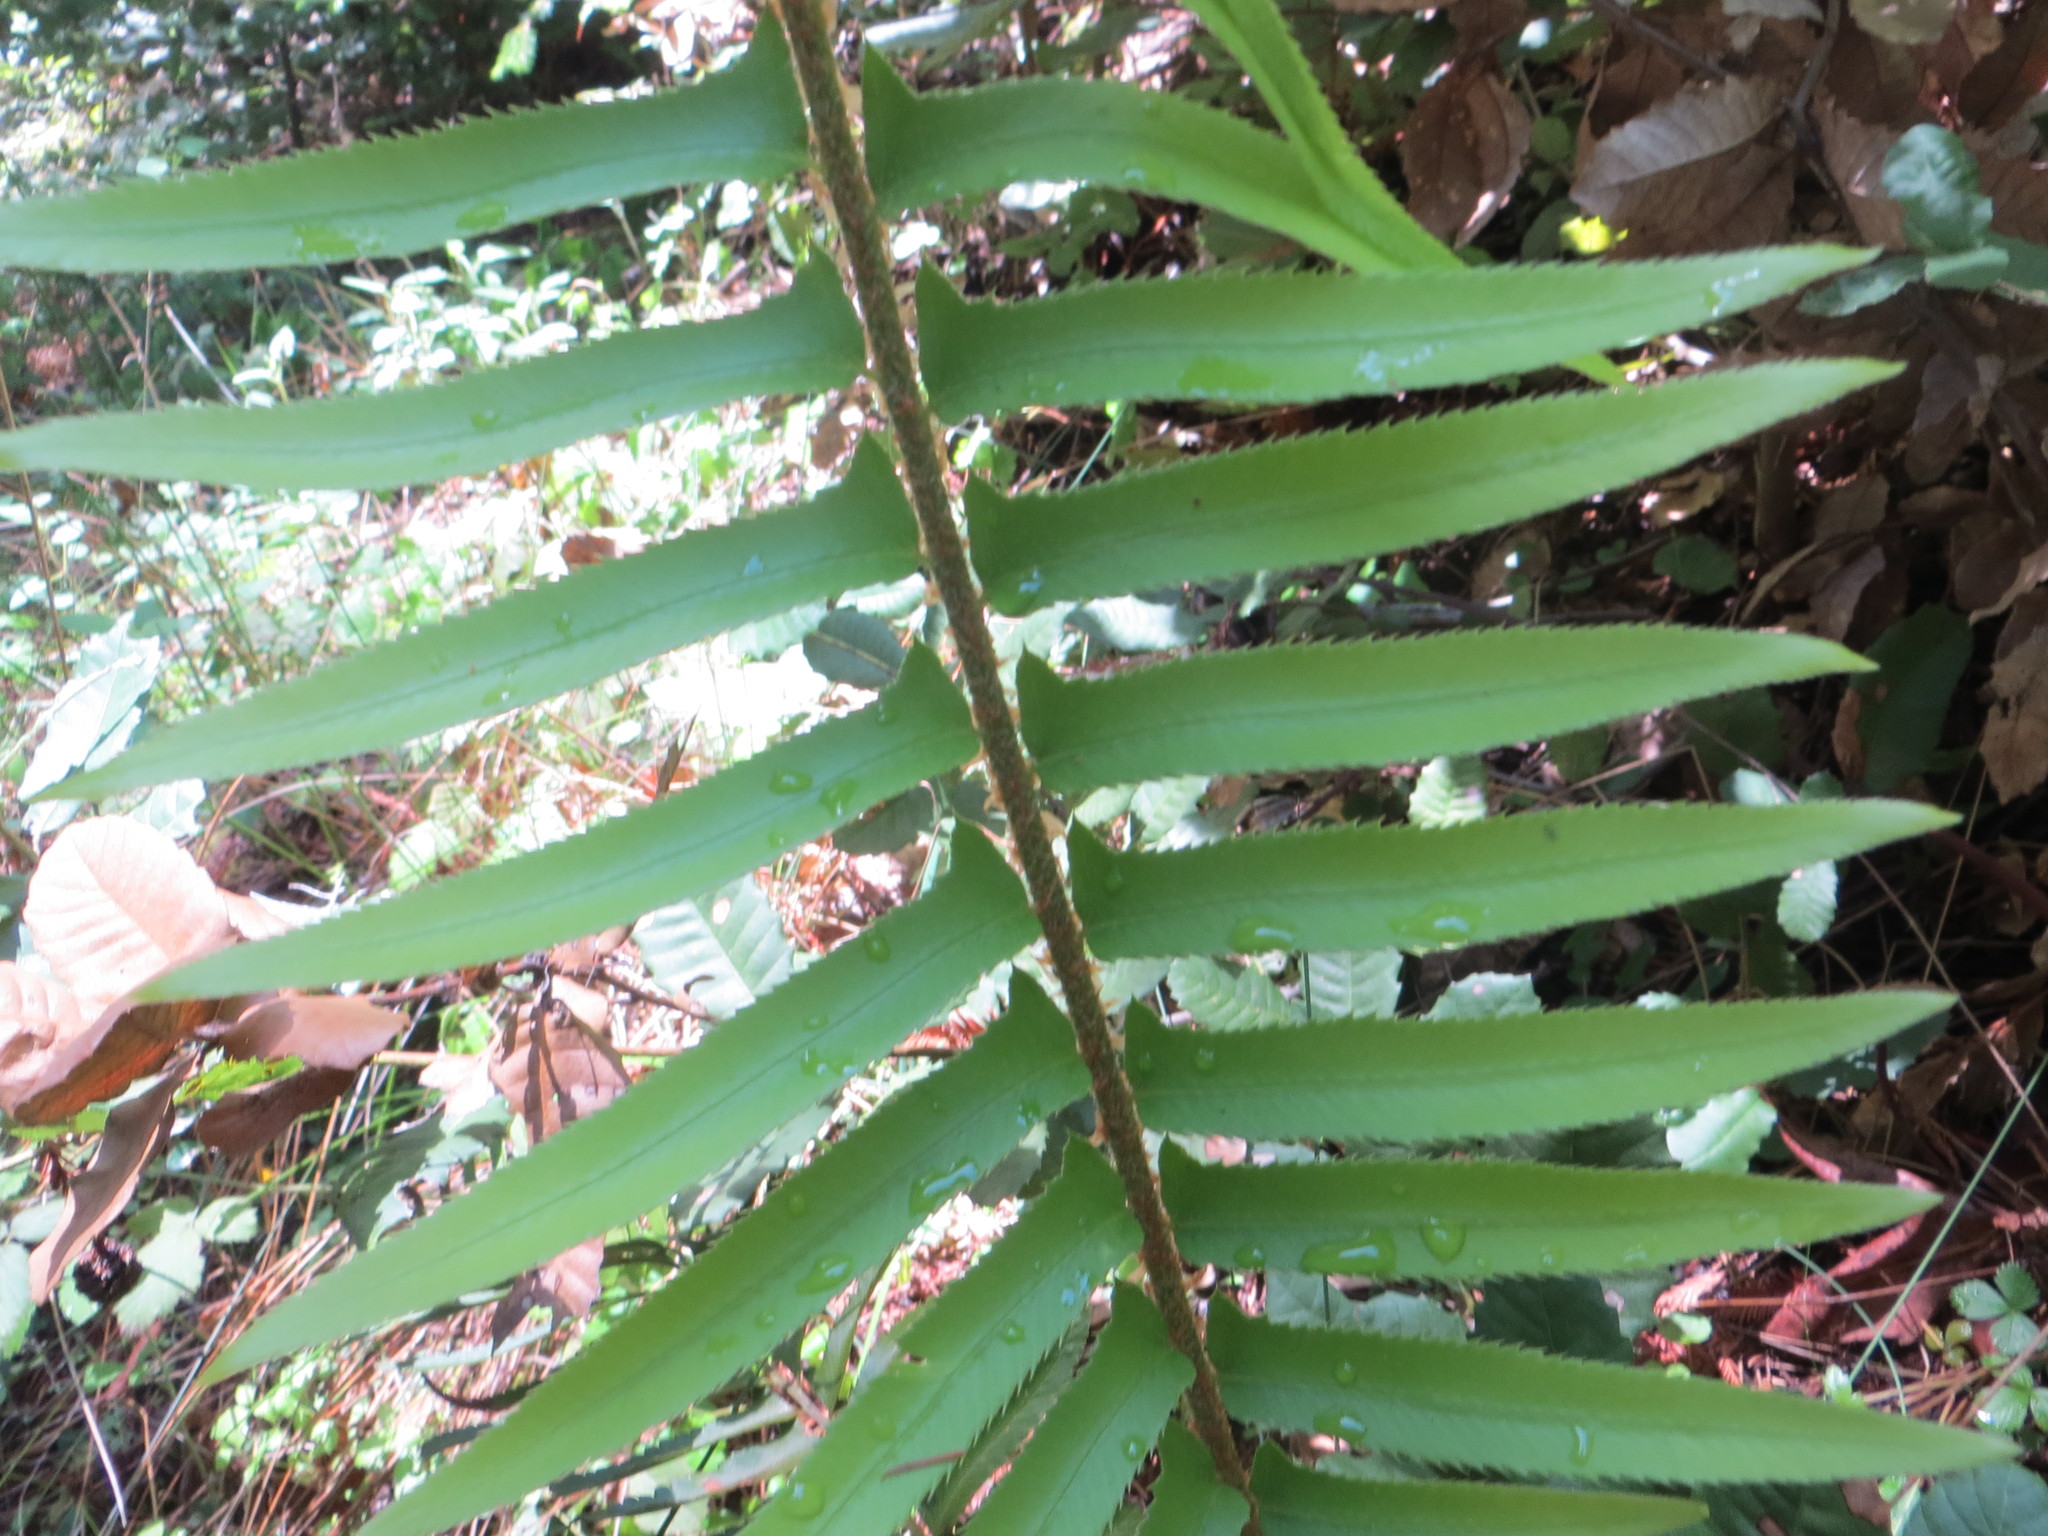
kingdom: Plantae
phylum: Tracheophyta
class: Polypodiopsida
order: Polypodiales
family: Dryopteridaceae
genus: Polystichum
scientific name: Polystichum munitum
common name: Western sword-fern
